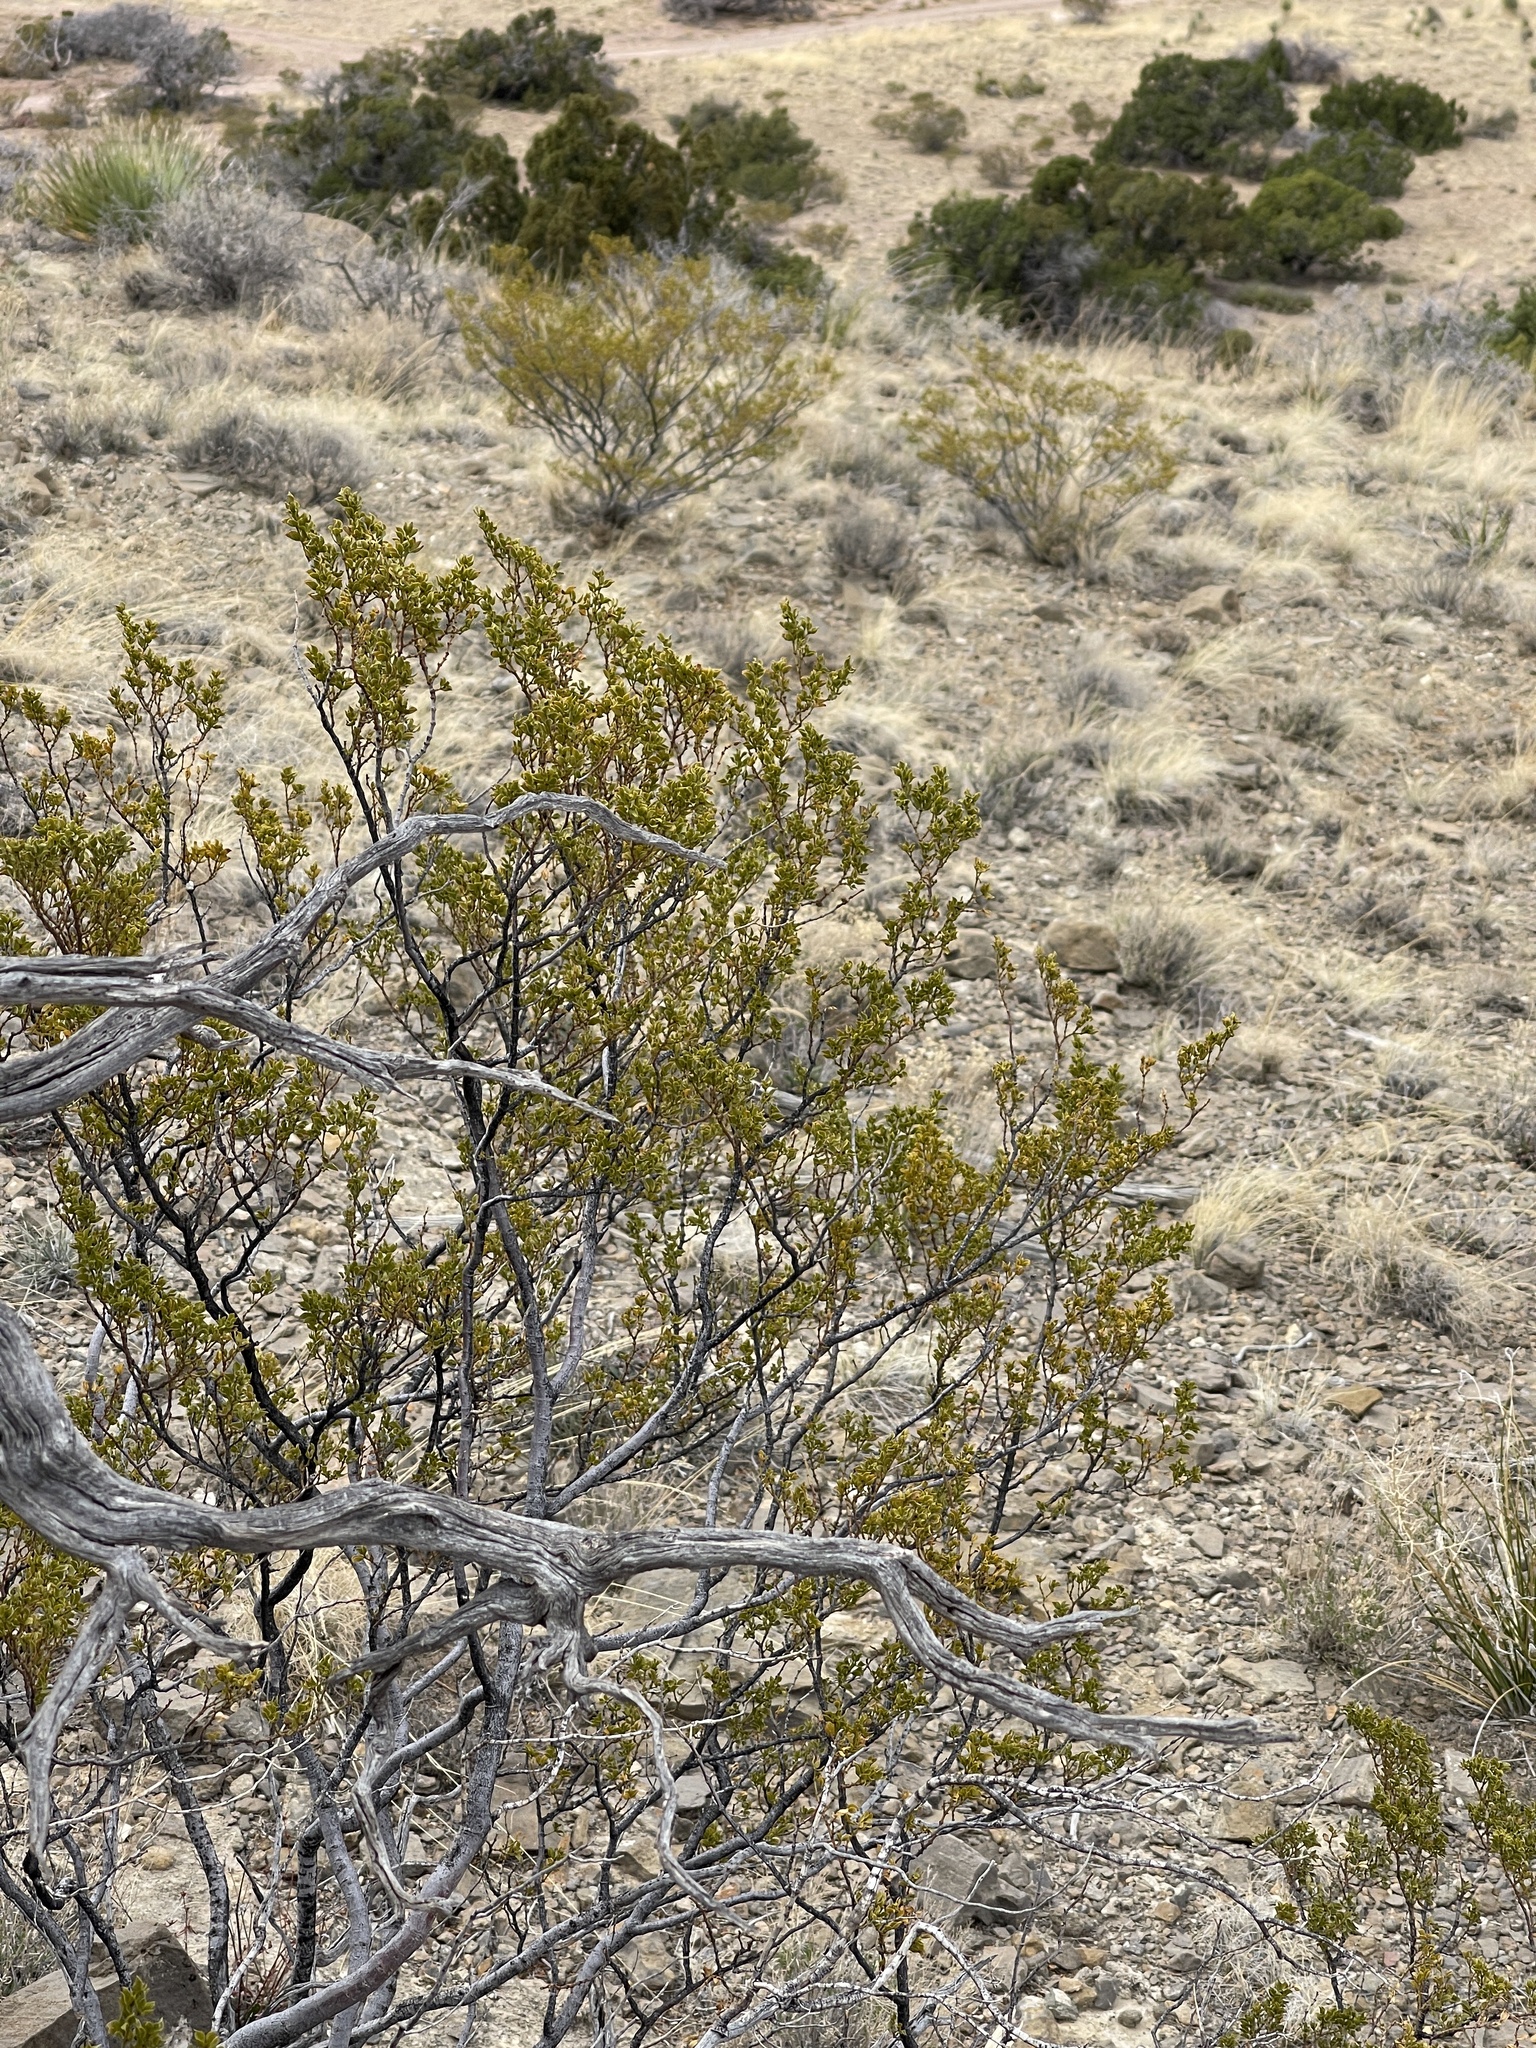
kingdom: Plantae
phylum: Tracheophyta
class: Magnoliopsida
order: Zygophyllales
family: Zygophyllaceae
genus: Larrea
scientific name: Larrea tridentata
